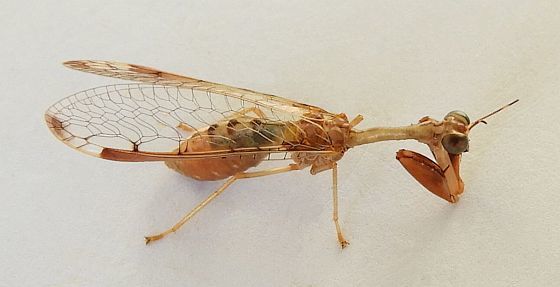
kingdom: Animalia
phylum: Arthropoda
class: Insecta
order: Neuroptera
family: Mantispidae
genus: Dicromantispa
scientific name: Dicromantispa interrupta
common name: Four-spotted mantidfly
